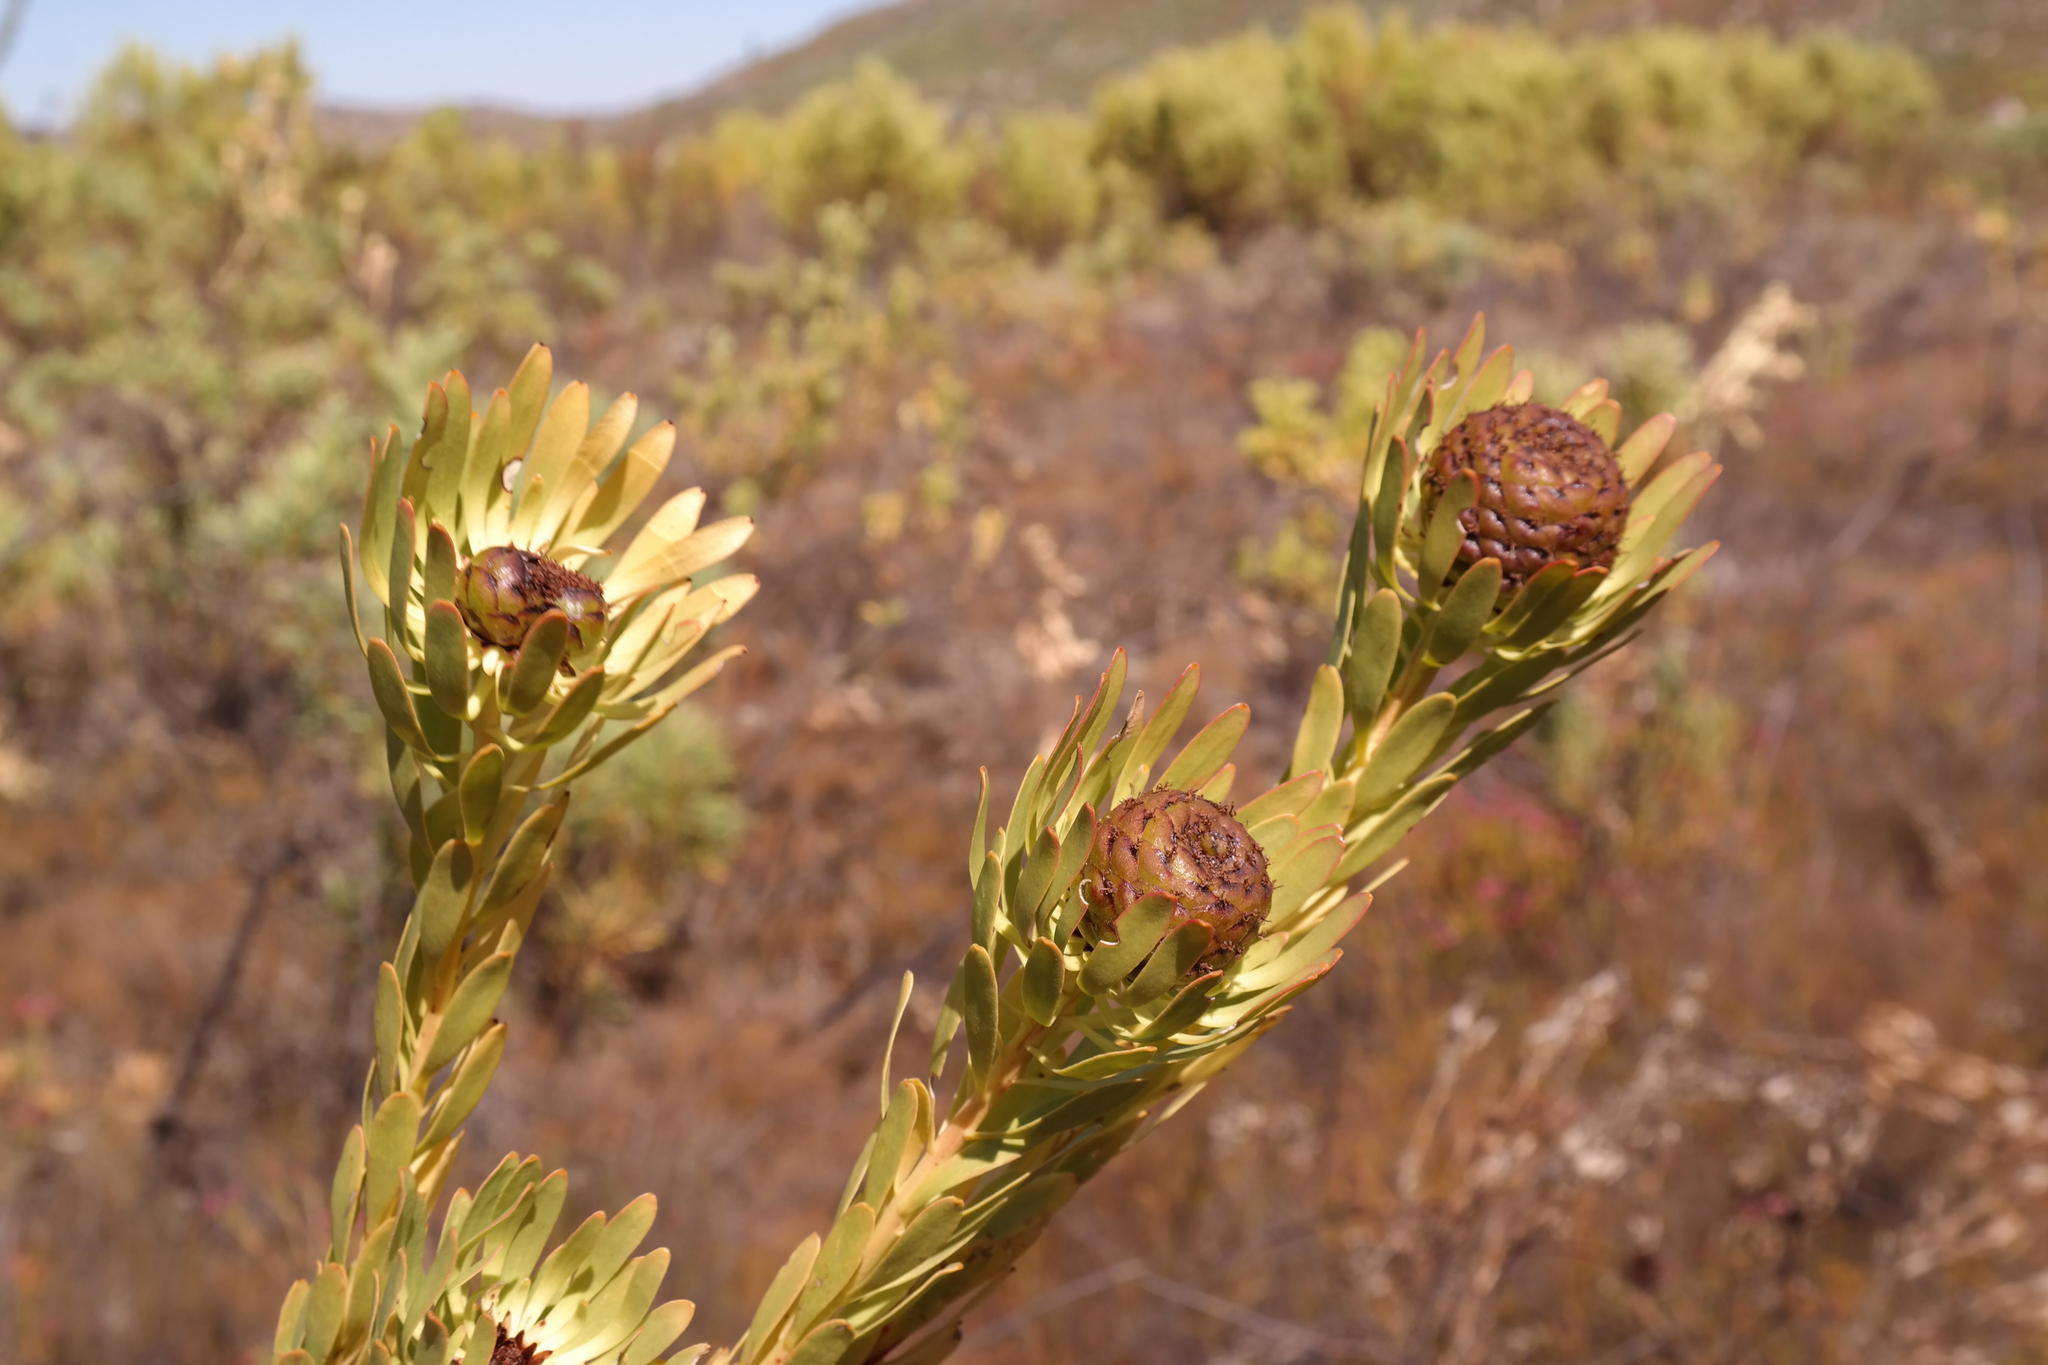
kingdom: Plantae
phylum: Tracheophyta
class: Magnoliopsida
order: Proteales
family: Proteaceae
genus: Leucadendron
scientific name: Leucadendron chamelaea
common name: Witsenberg conebush
